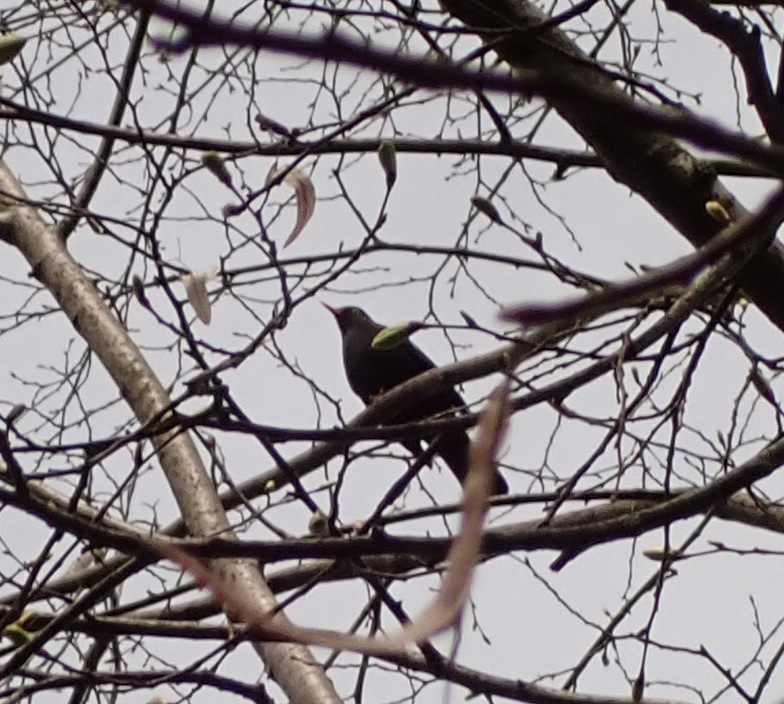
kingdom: Animalia
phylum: Chordata
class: Aves
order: Passeriformes
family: Turdidae
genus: Turdus
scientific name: Turdus merula
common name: Common blackbird
